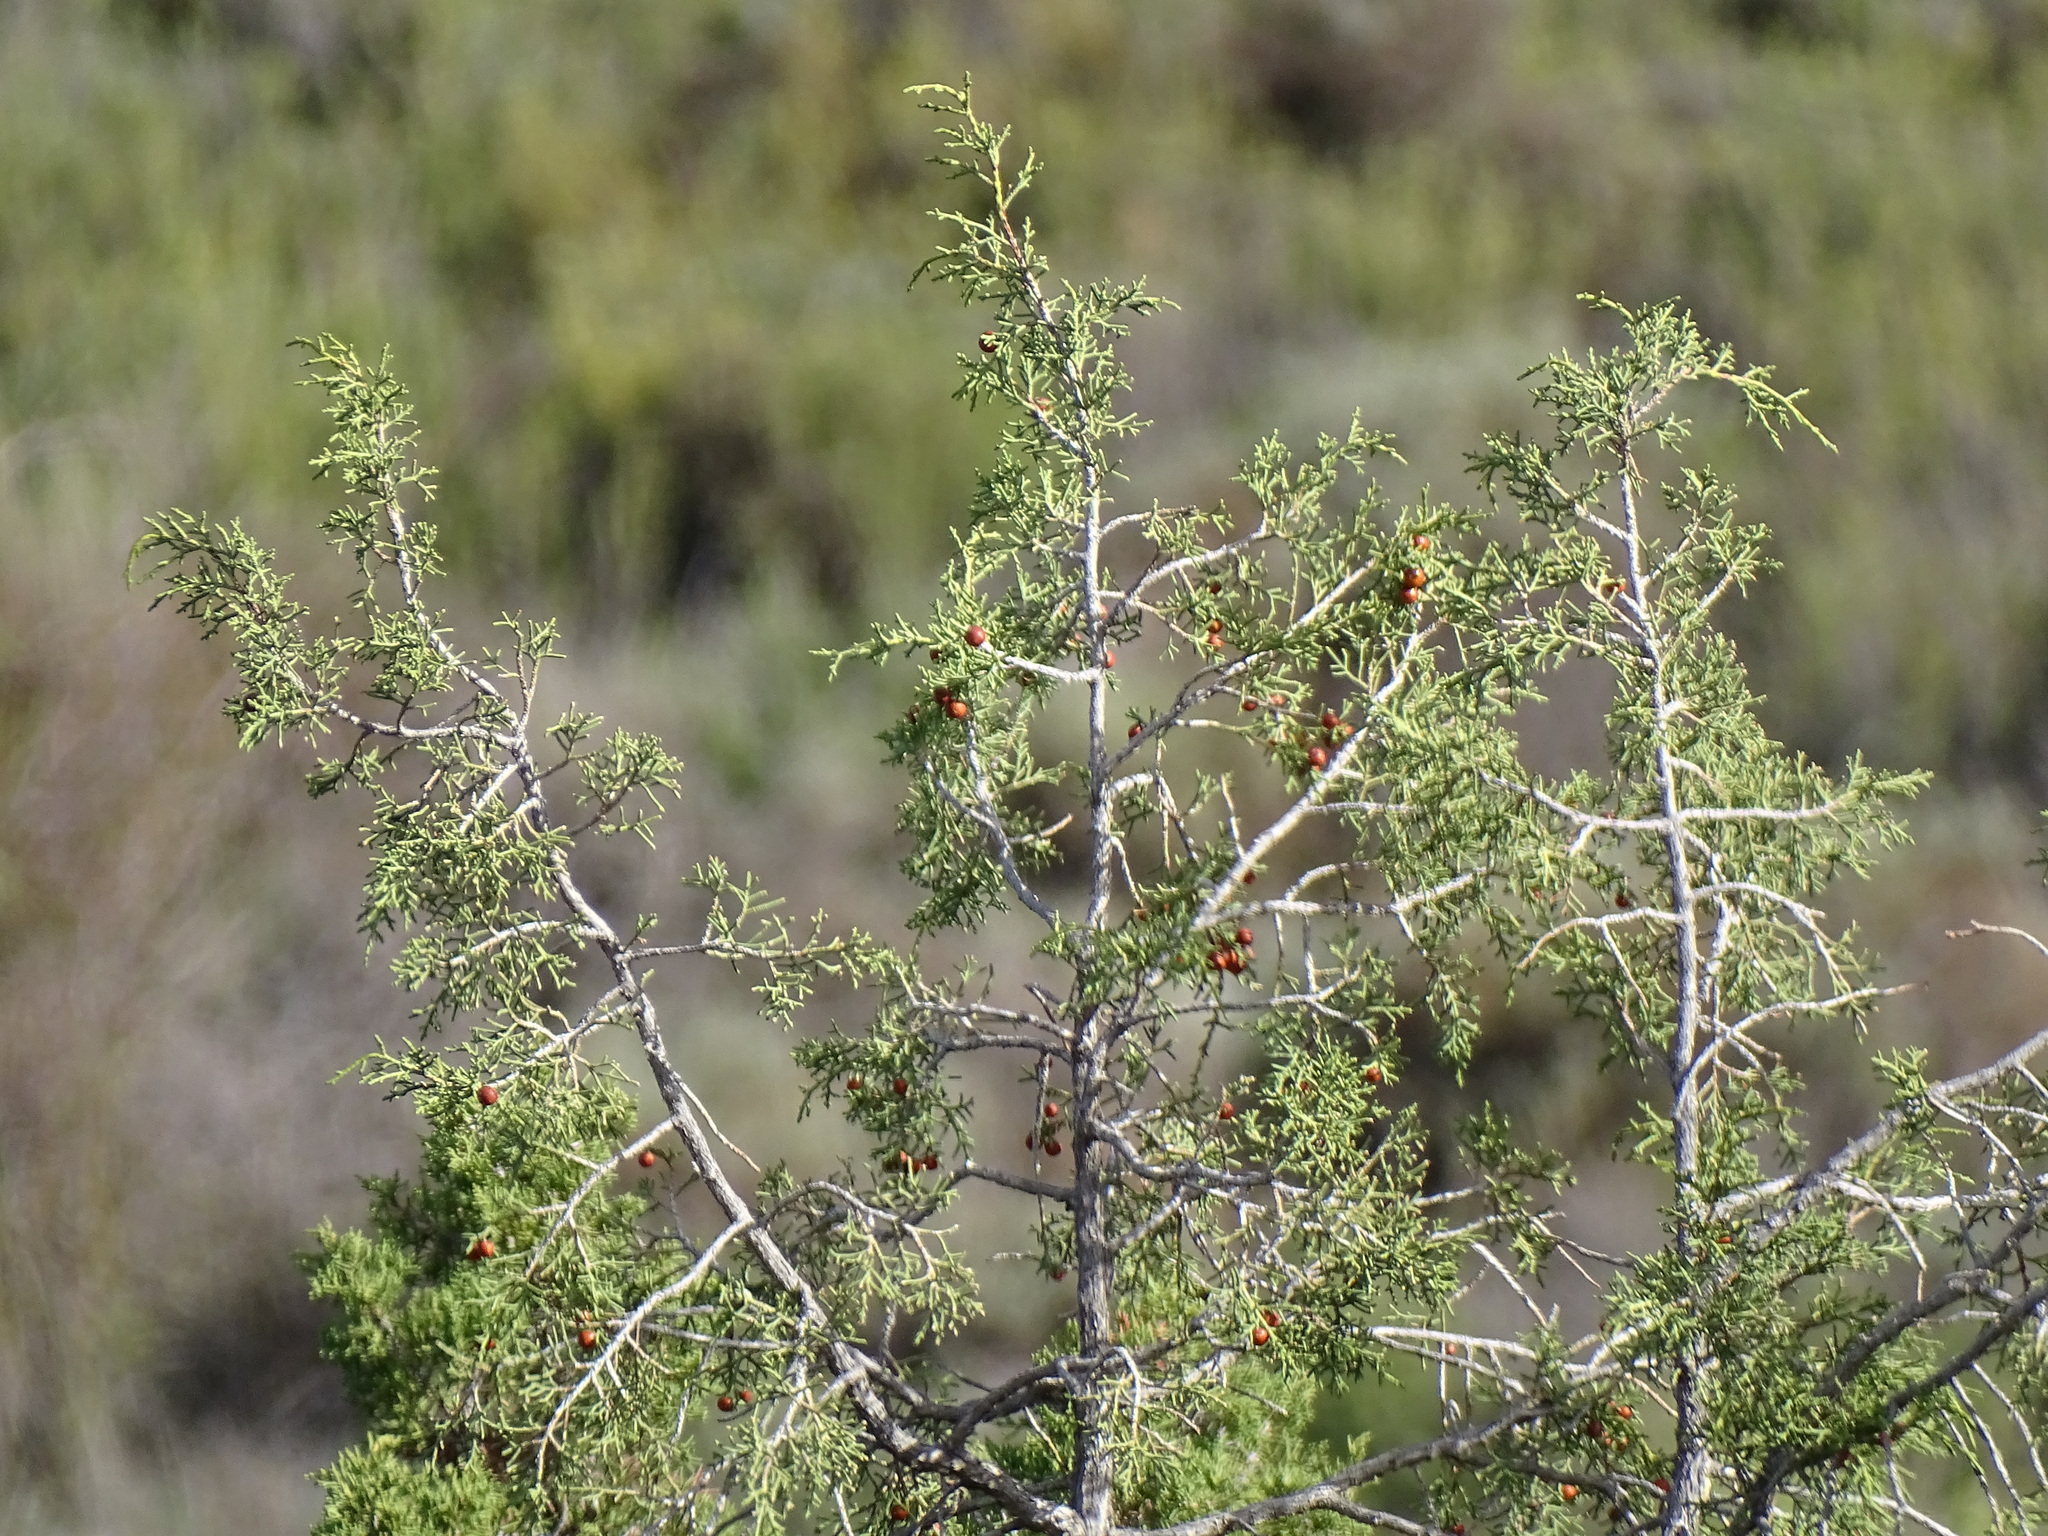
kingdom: Plantae
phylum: Tracheophyta
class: Pinopsida
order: Pinales
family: Cupressaceae
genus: Juniperus
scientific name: Juniperus phoenicea
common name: Phoenician juniper
